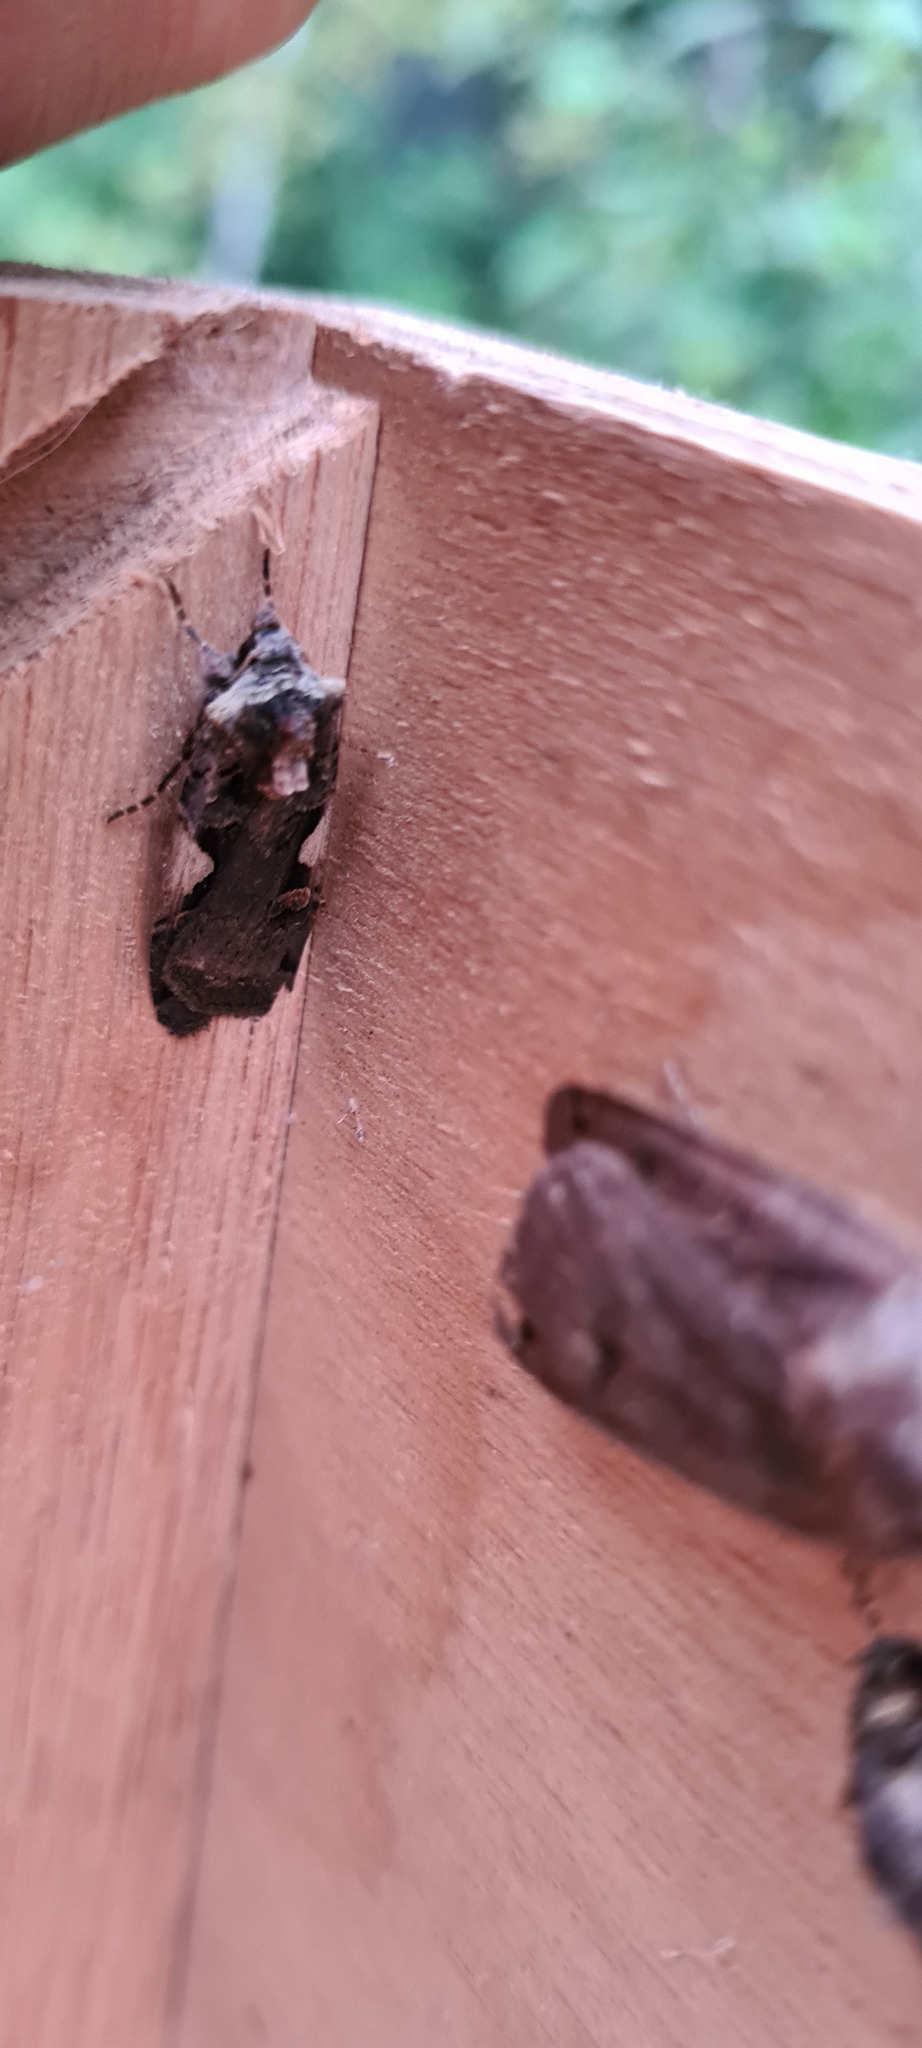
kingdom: Animalia
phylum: Arthropoda
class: Insecta
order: Lepidoptera
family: Noctuidae
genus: Xestia
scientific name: Xestia c-nigrum
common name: Setaceous hebrew character
